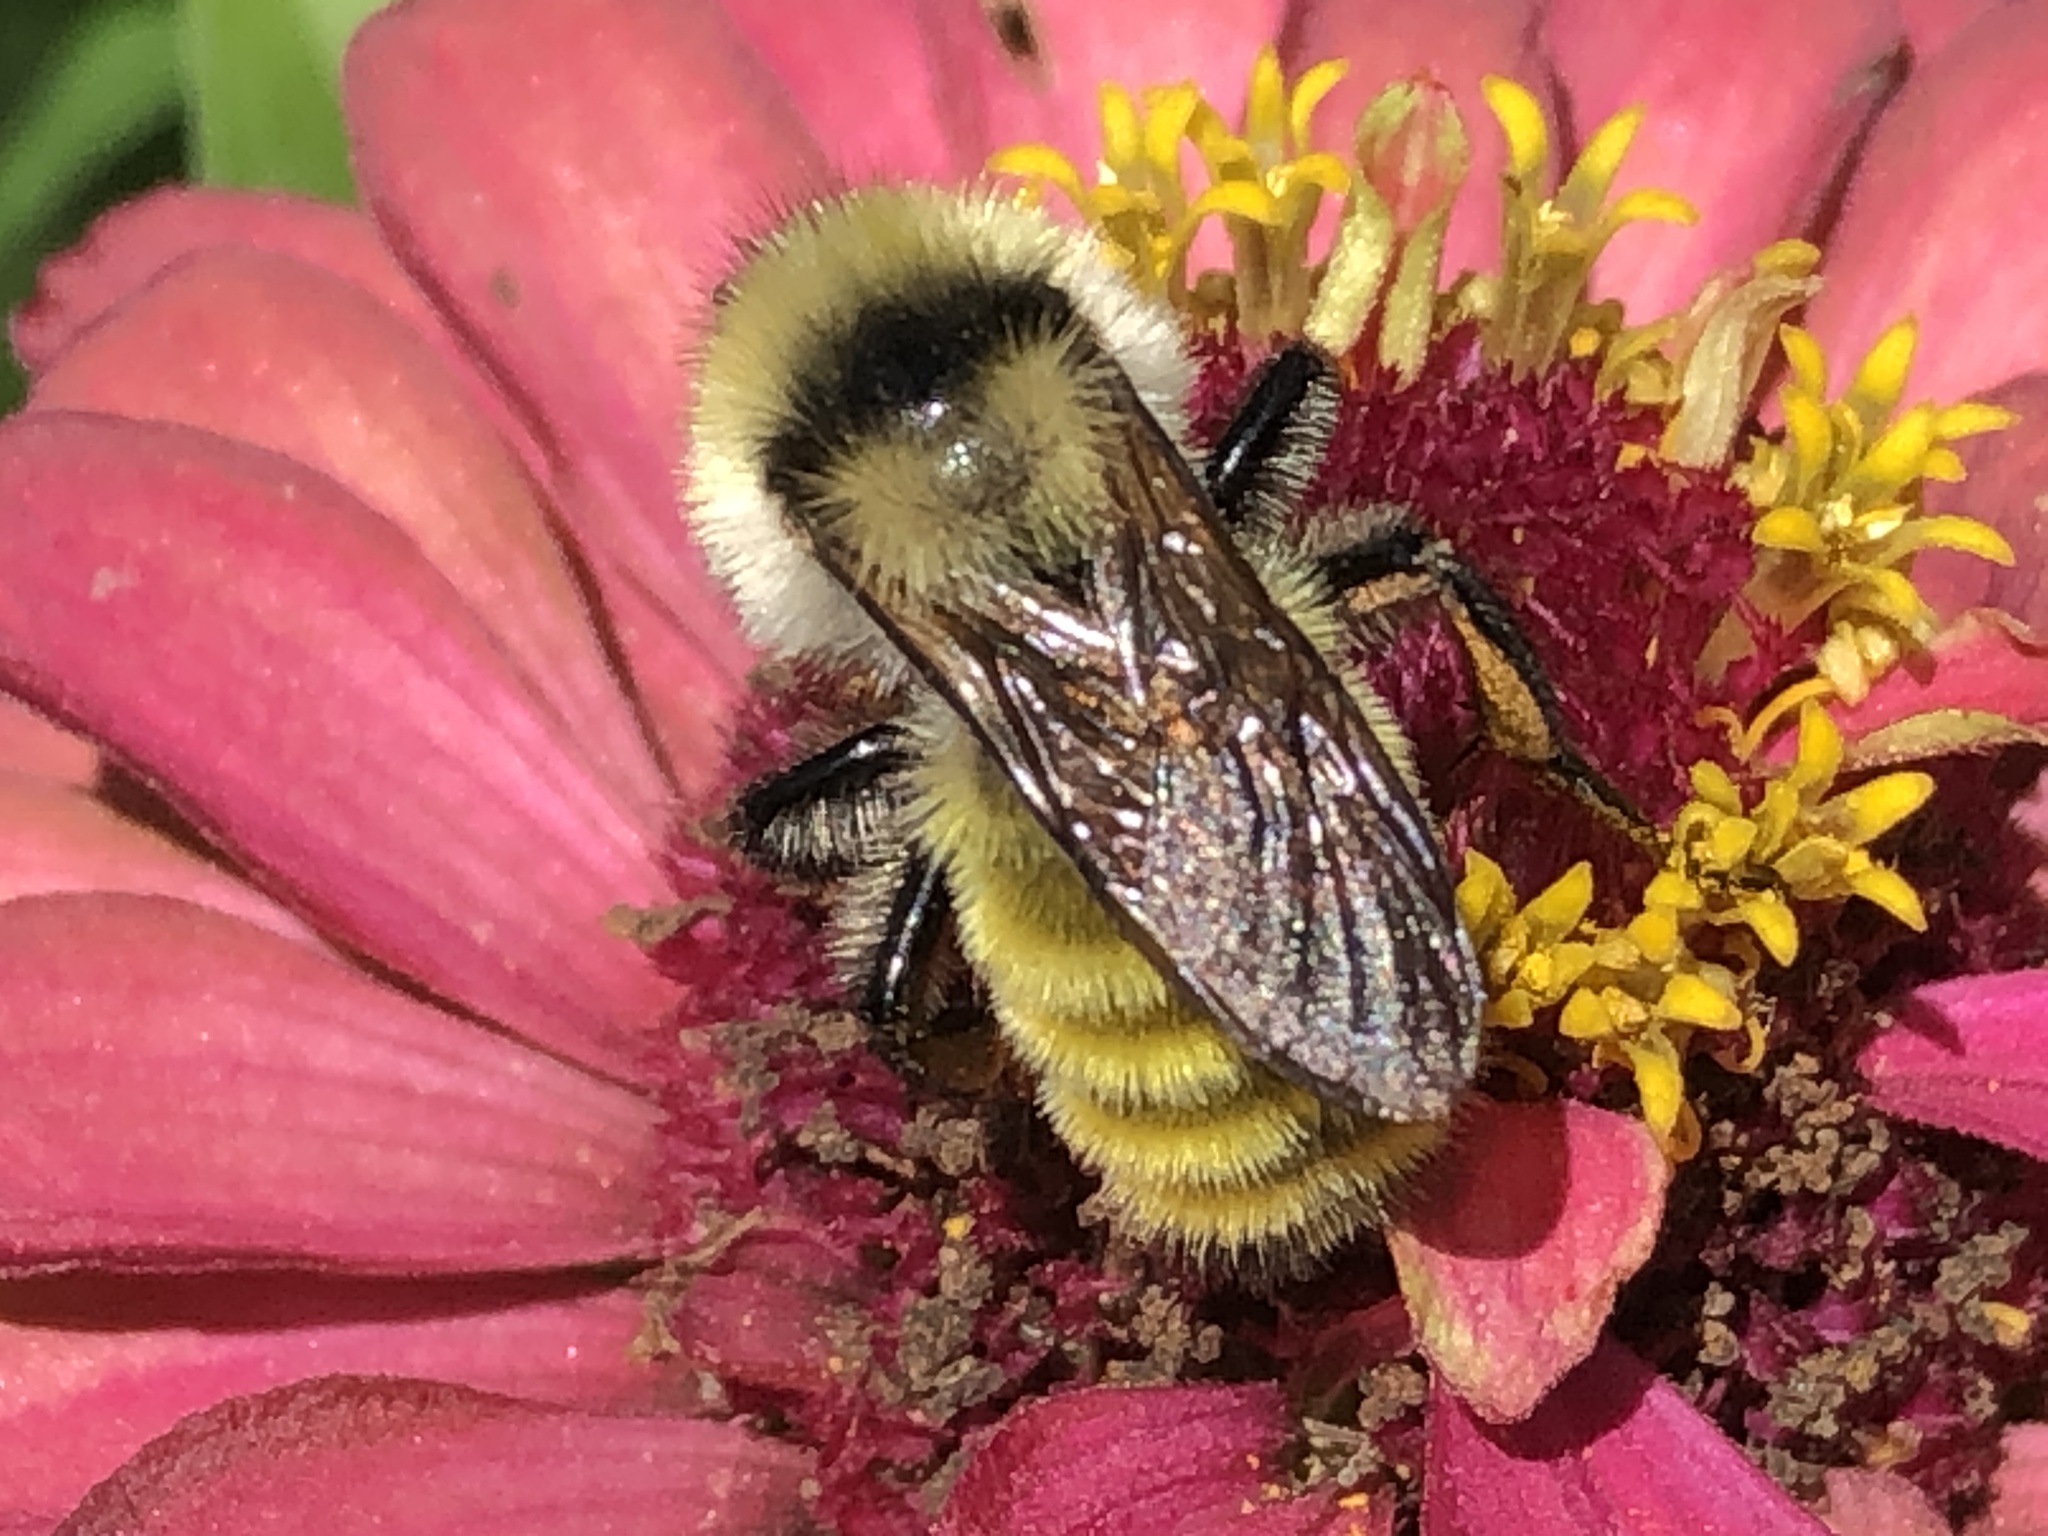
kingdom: Animalia
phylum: Arthropoda
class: Insecta
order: Hymenoptera
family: Apidae
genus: Bombus
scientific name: Bombus fervidus
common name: Yellow bumble bee
